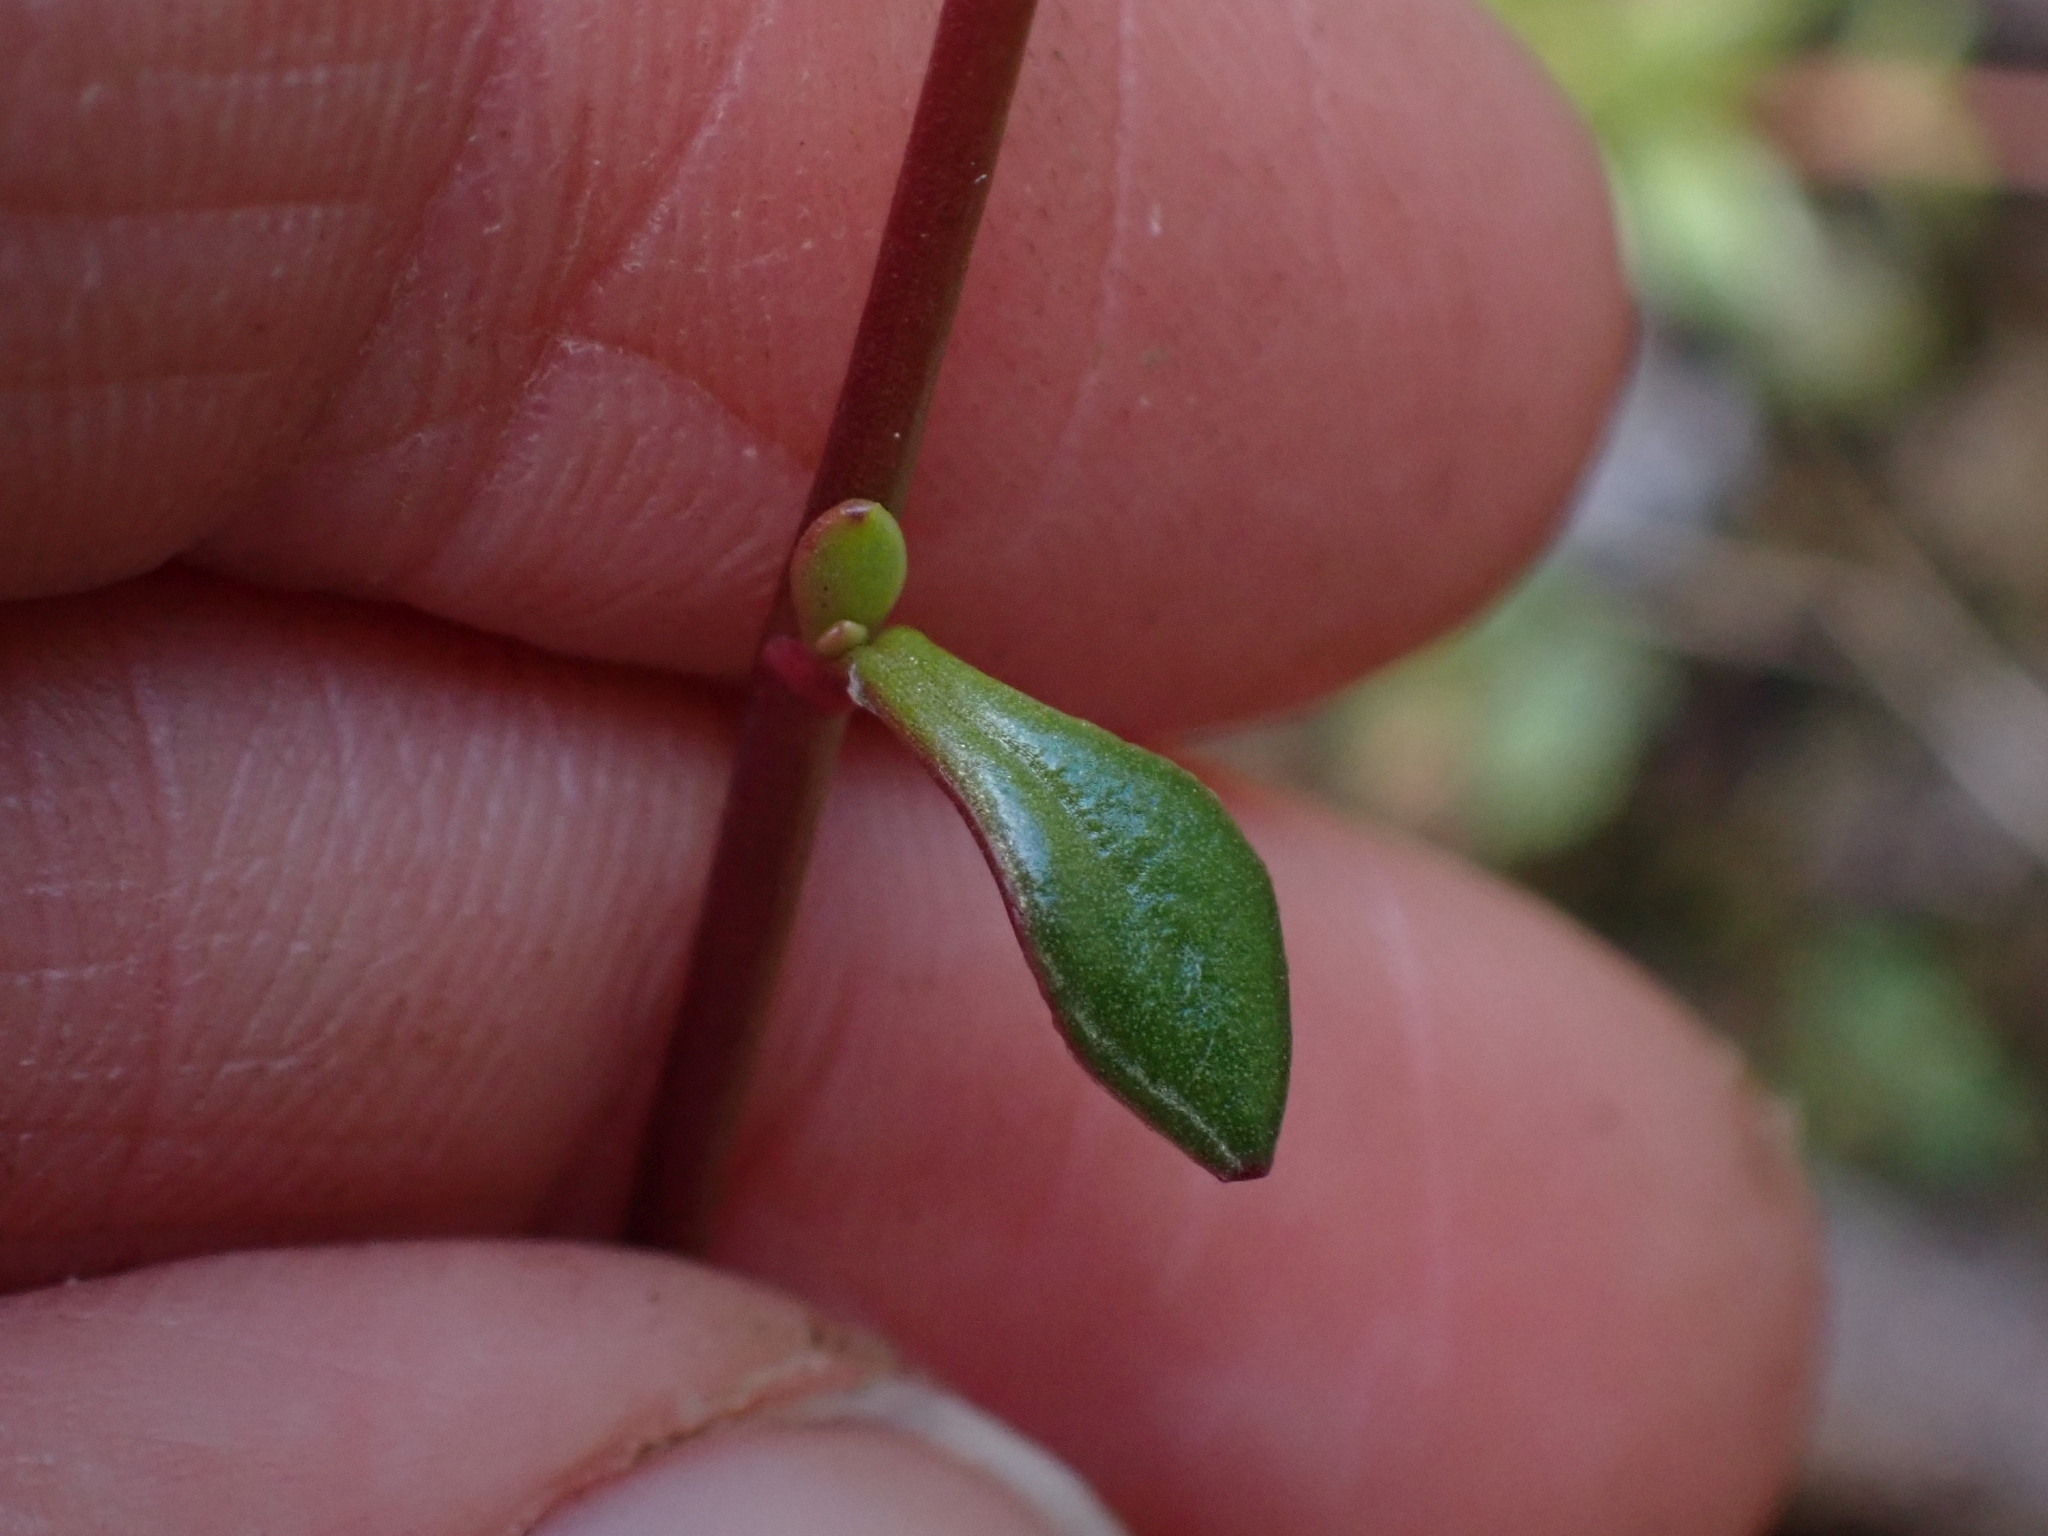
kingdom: Plantae
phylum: Tracheophyta
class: Magnoliopsida
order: Caryophyllales
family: Montiaceae
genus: Montia
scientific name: Montia parvifolia
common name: Small-leaved blinks
